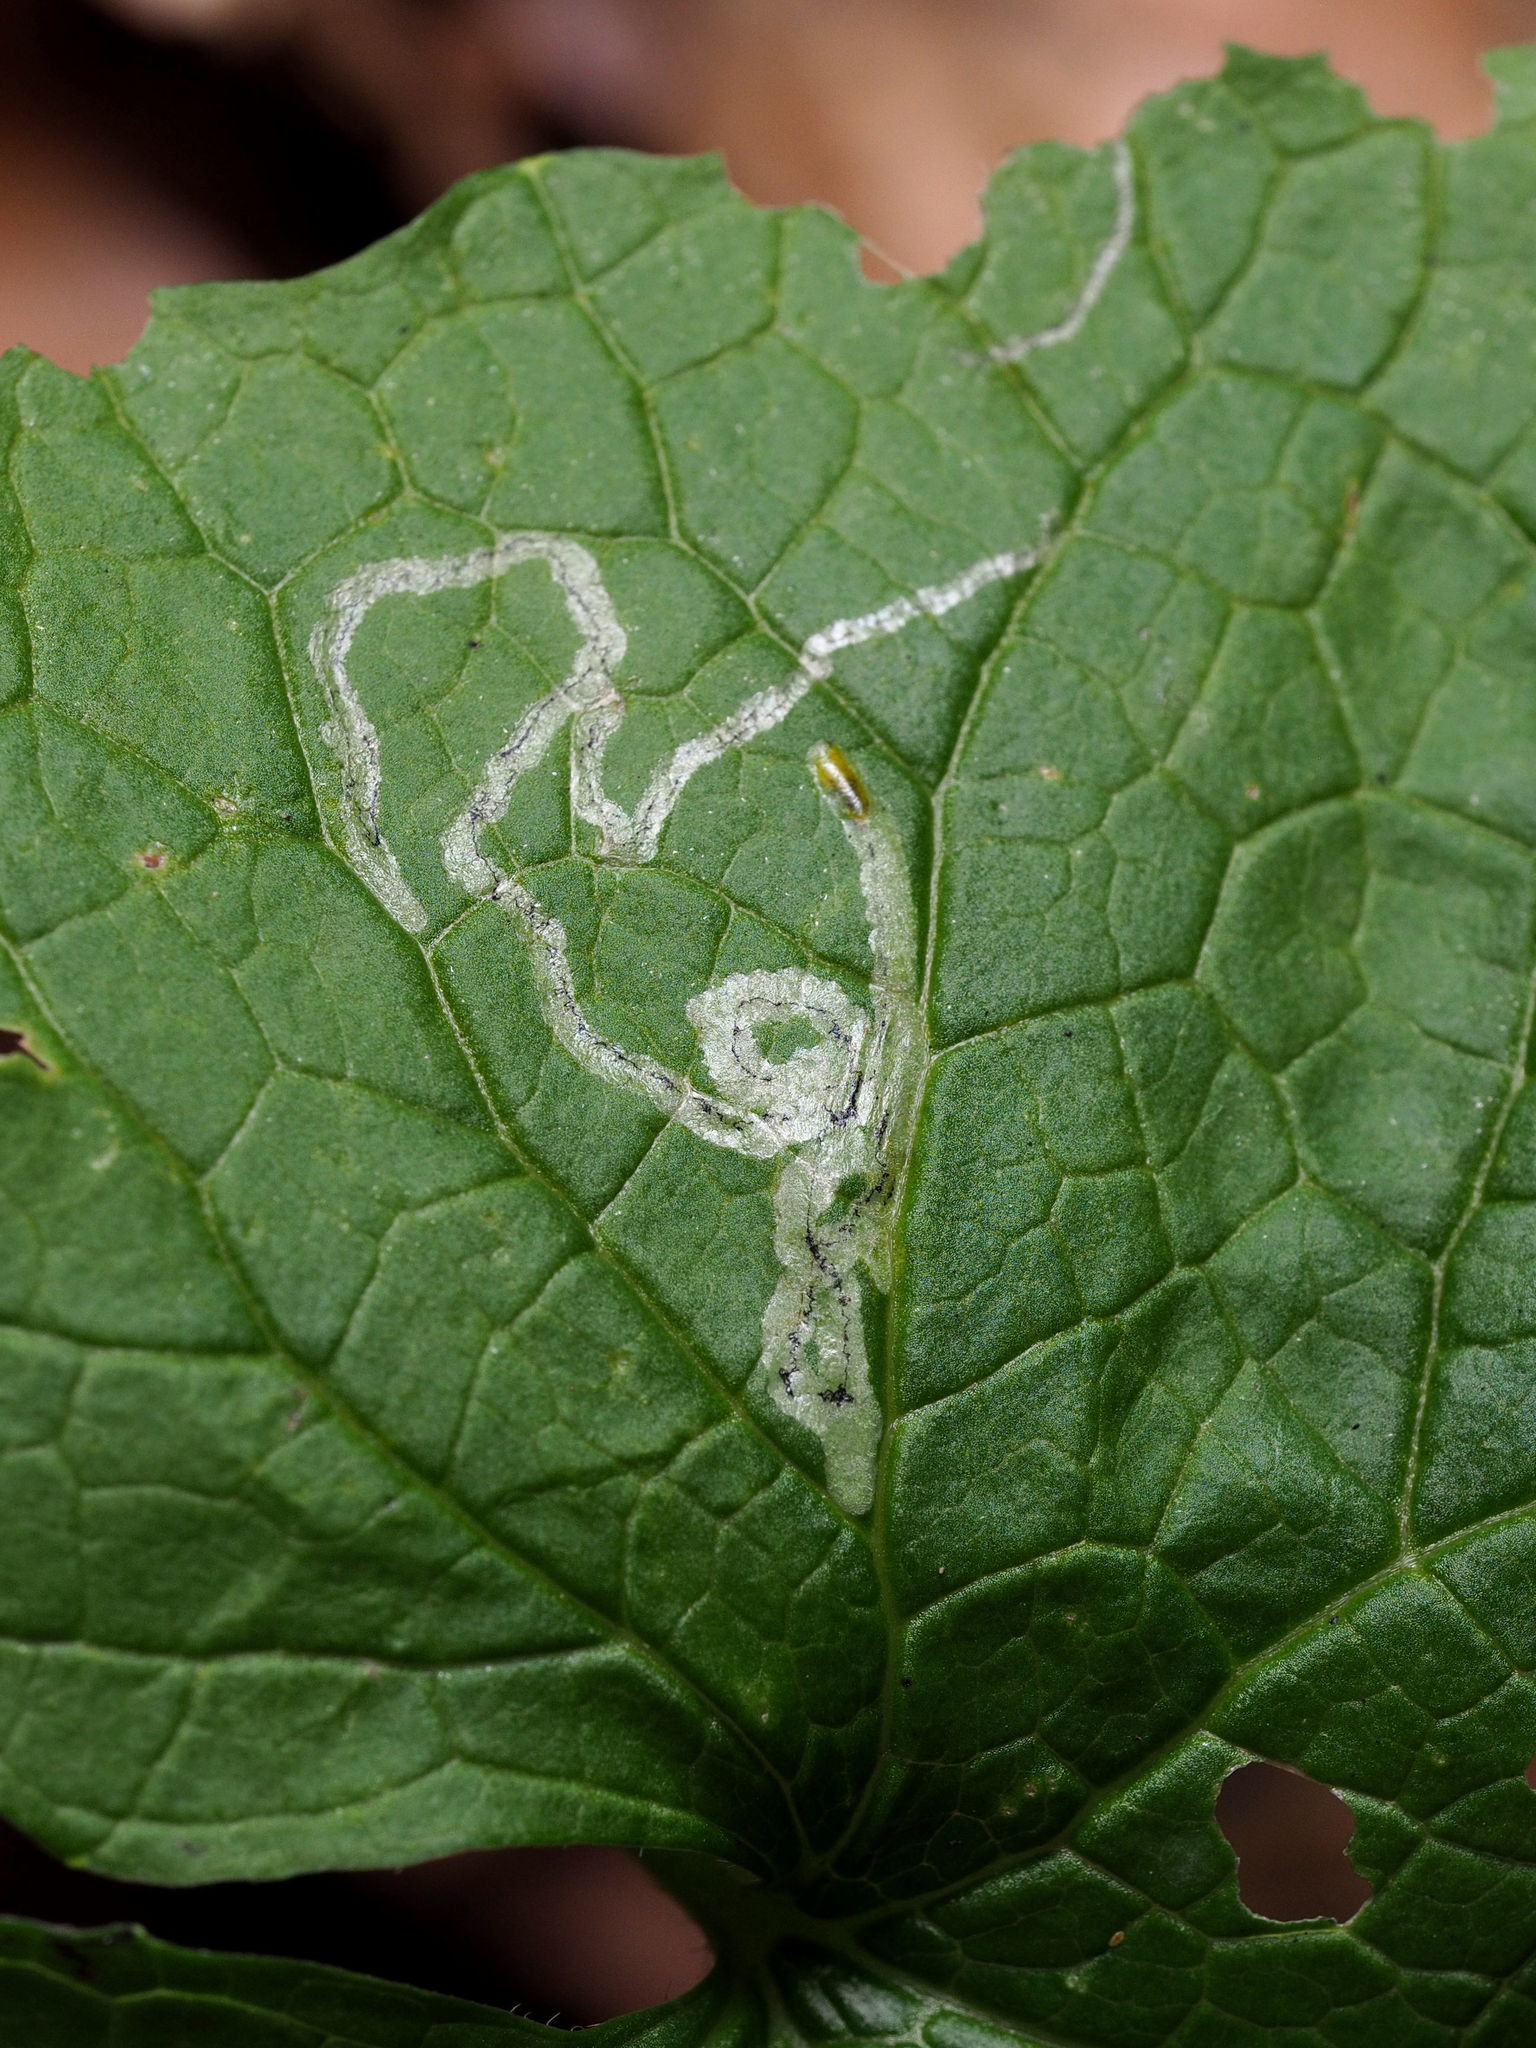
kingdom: Animalia
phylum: Arthropoda
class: Insecta
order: Diptera
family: Agromyzidae
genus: Liriomyza
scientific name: Liriomyza brassicae
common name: Serpentine leaf miner
